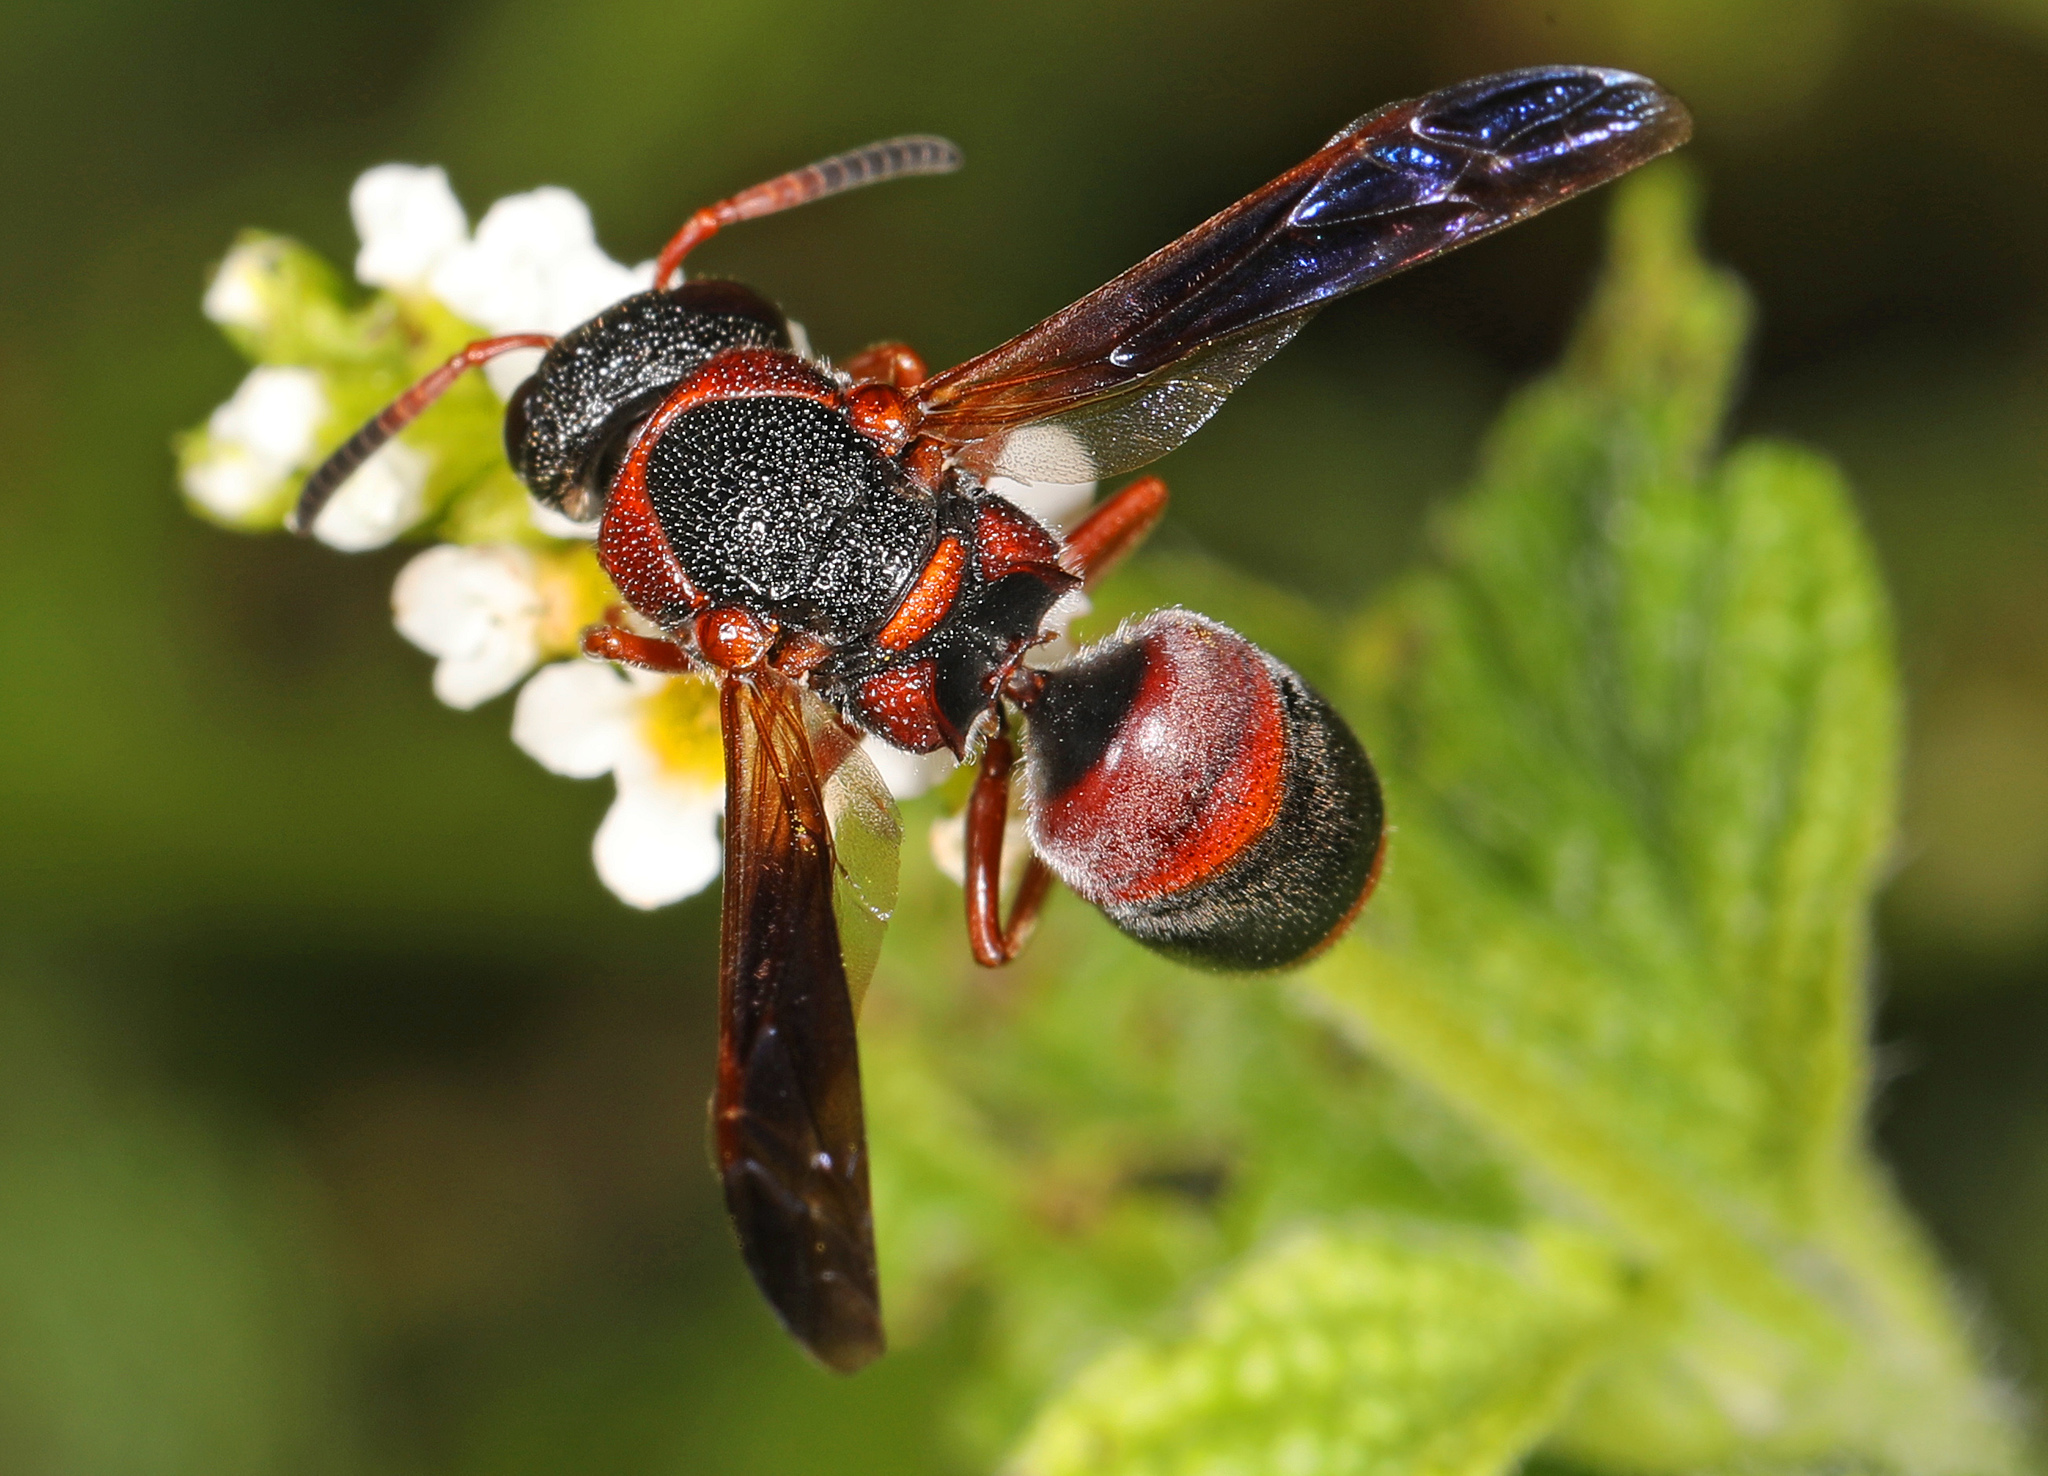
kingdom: Animalia
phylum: Arthropoda
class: Insecta
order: Hymenoptera
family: Eumenidae
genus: Pachodynerus
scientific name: Pachodynerus erynnis
